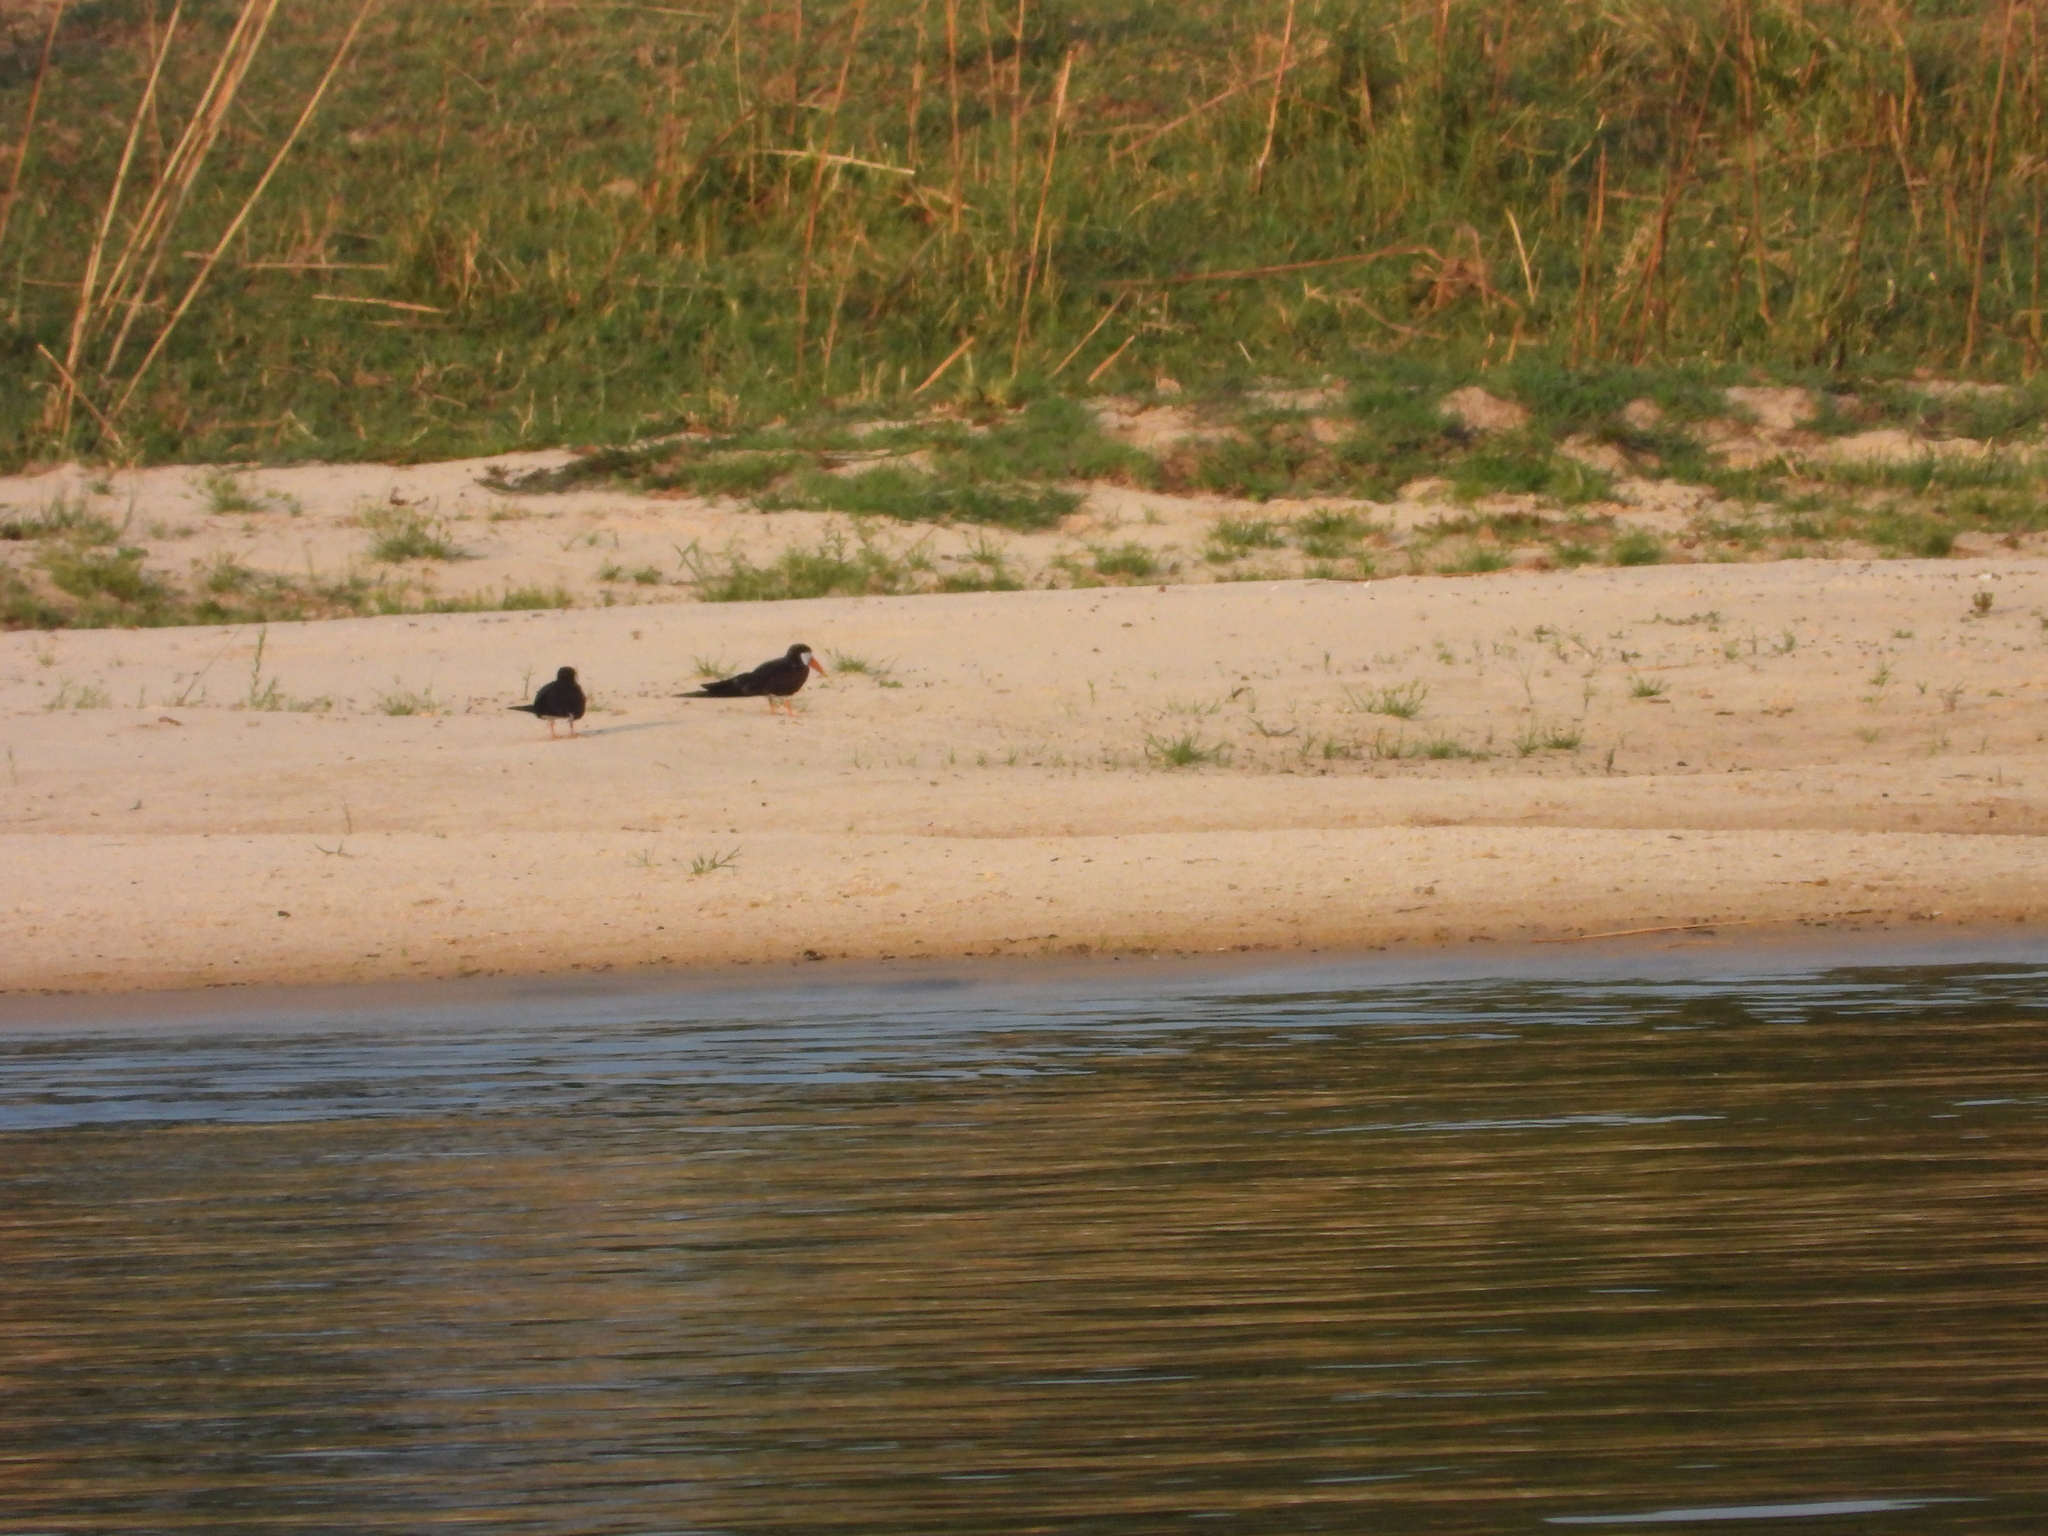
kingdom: Animalia
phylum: Chordata
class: Aves
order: Charadriiformes
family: Laridae
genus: Rynchops
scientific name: Rynchops flavirostris
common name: African skimmer
